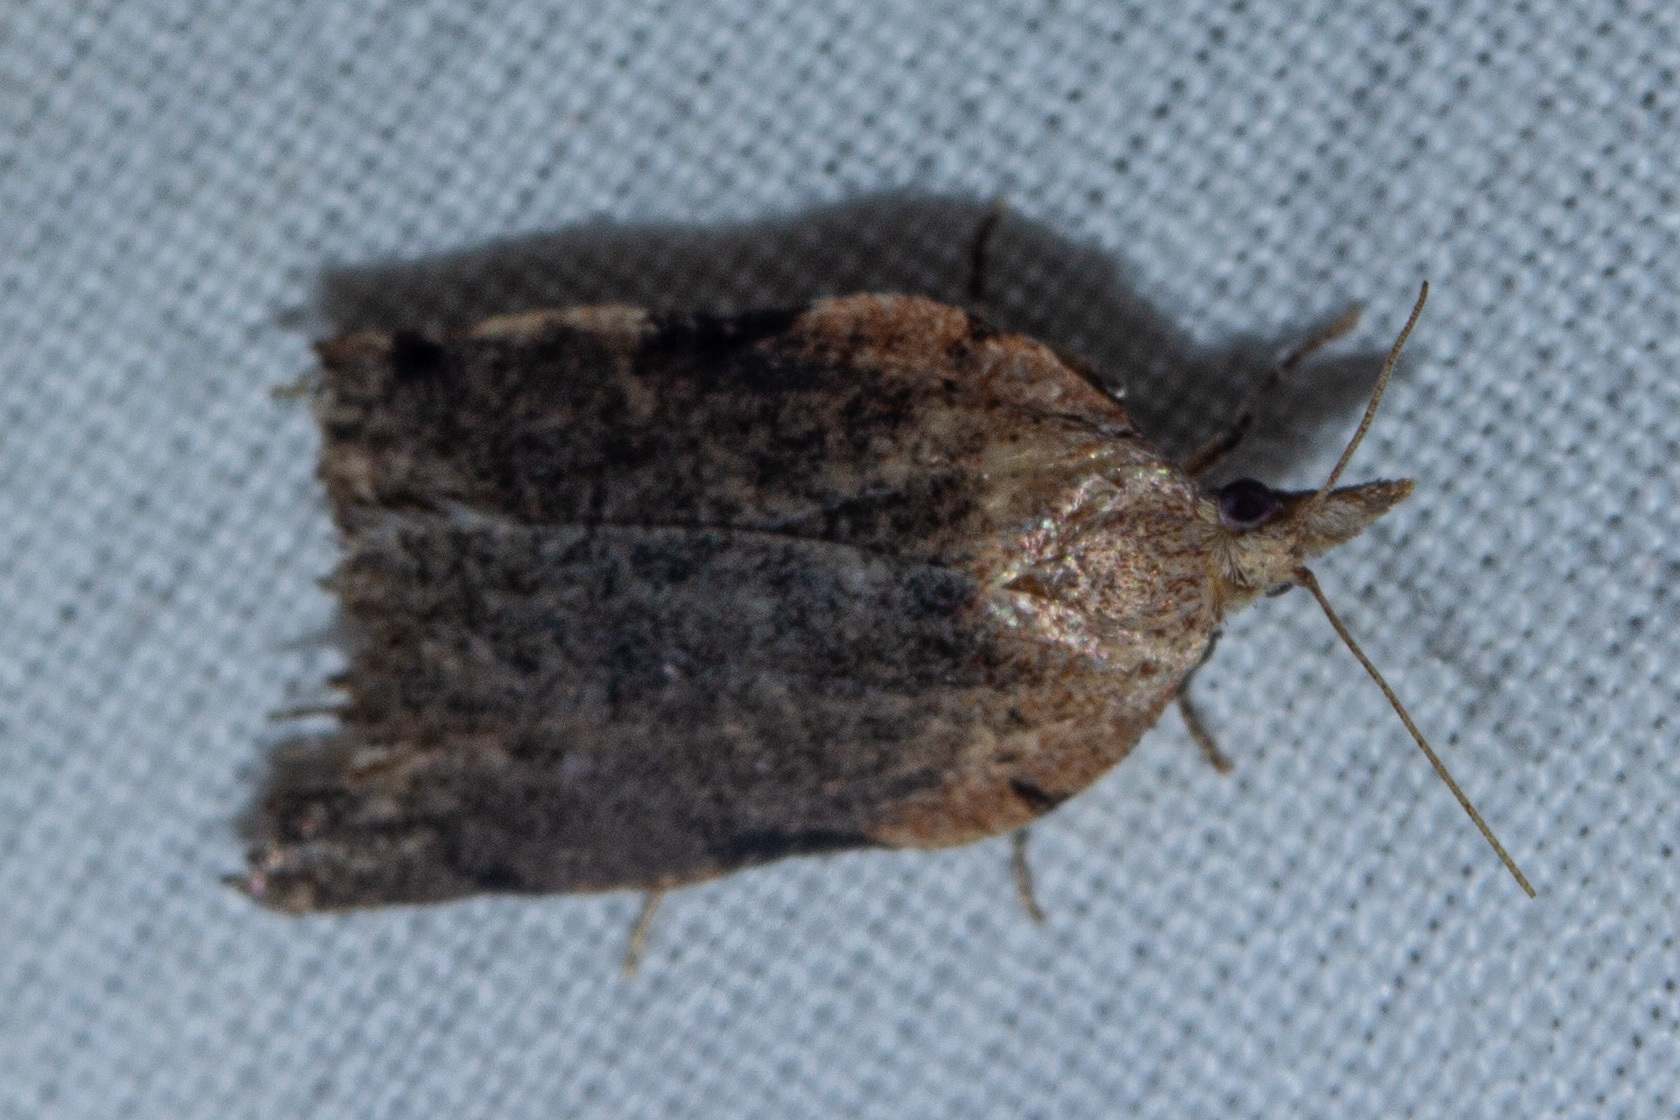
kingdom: Animalia
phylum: Arthropoda
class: Insecta
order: Lepidoptera
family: Tortricidae
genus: Apoctena
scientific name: Apoctena flavescens
